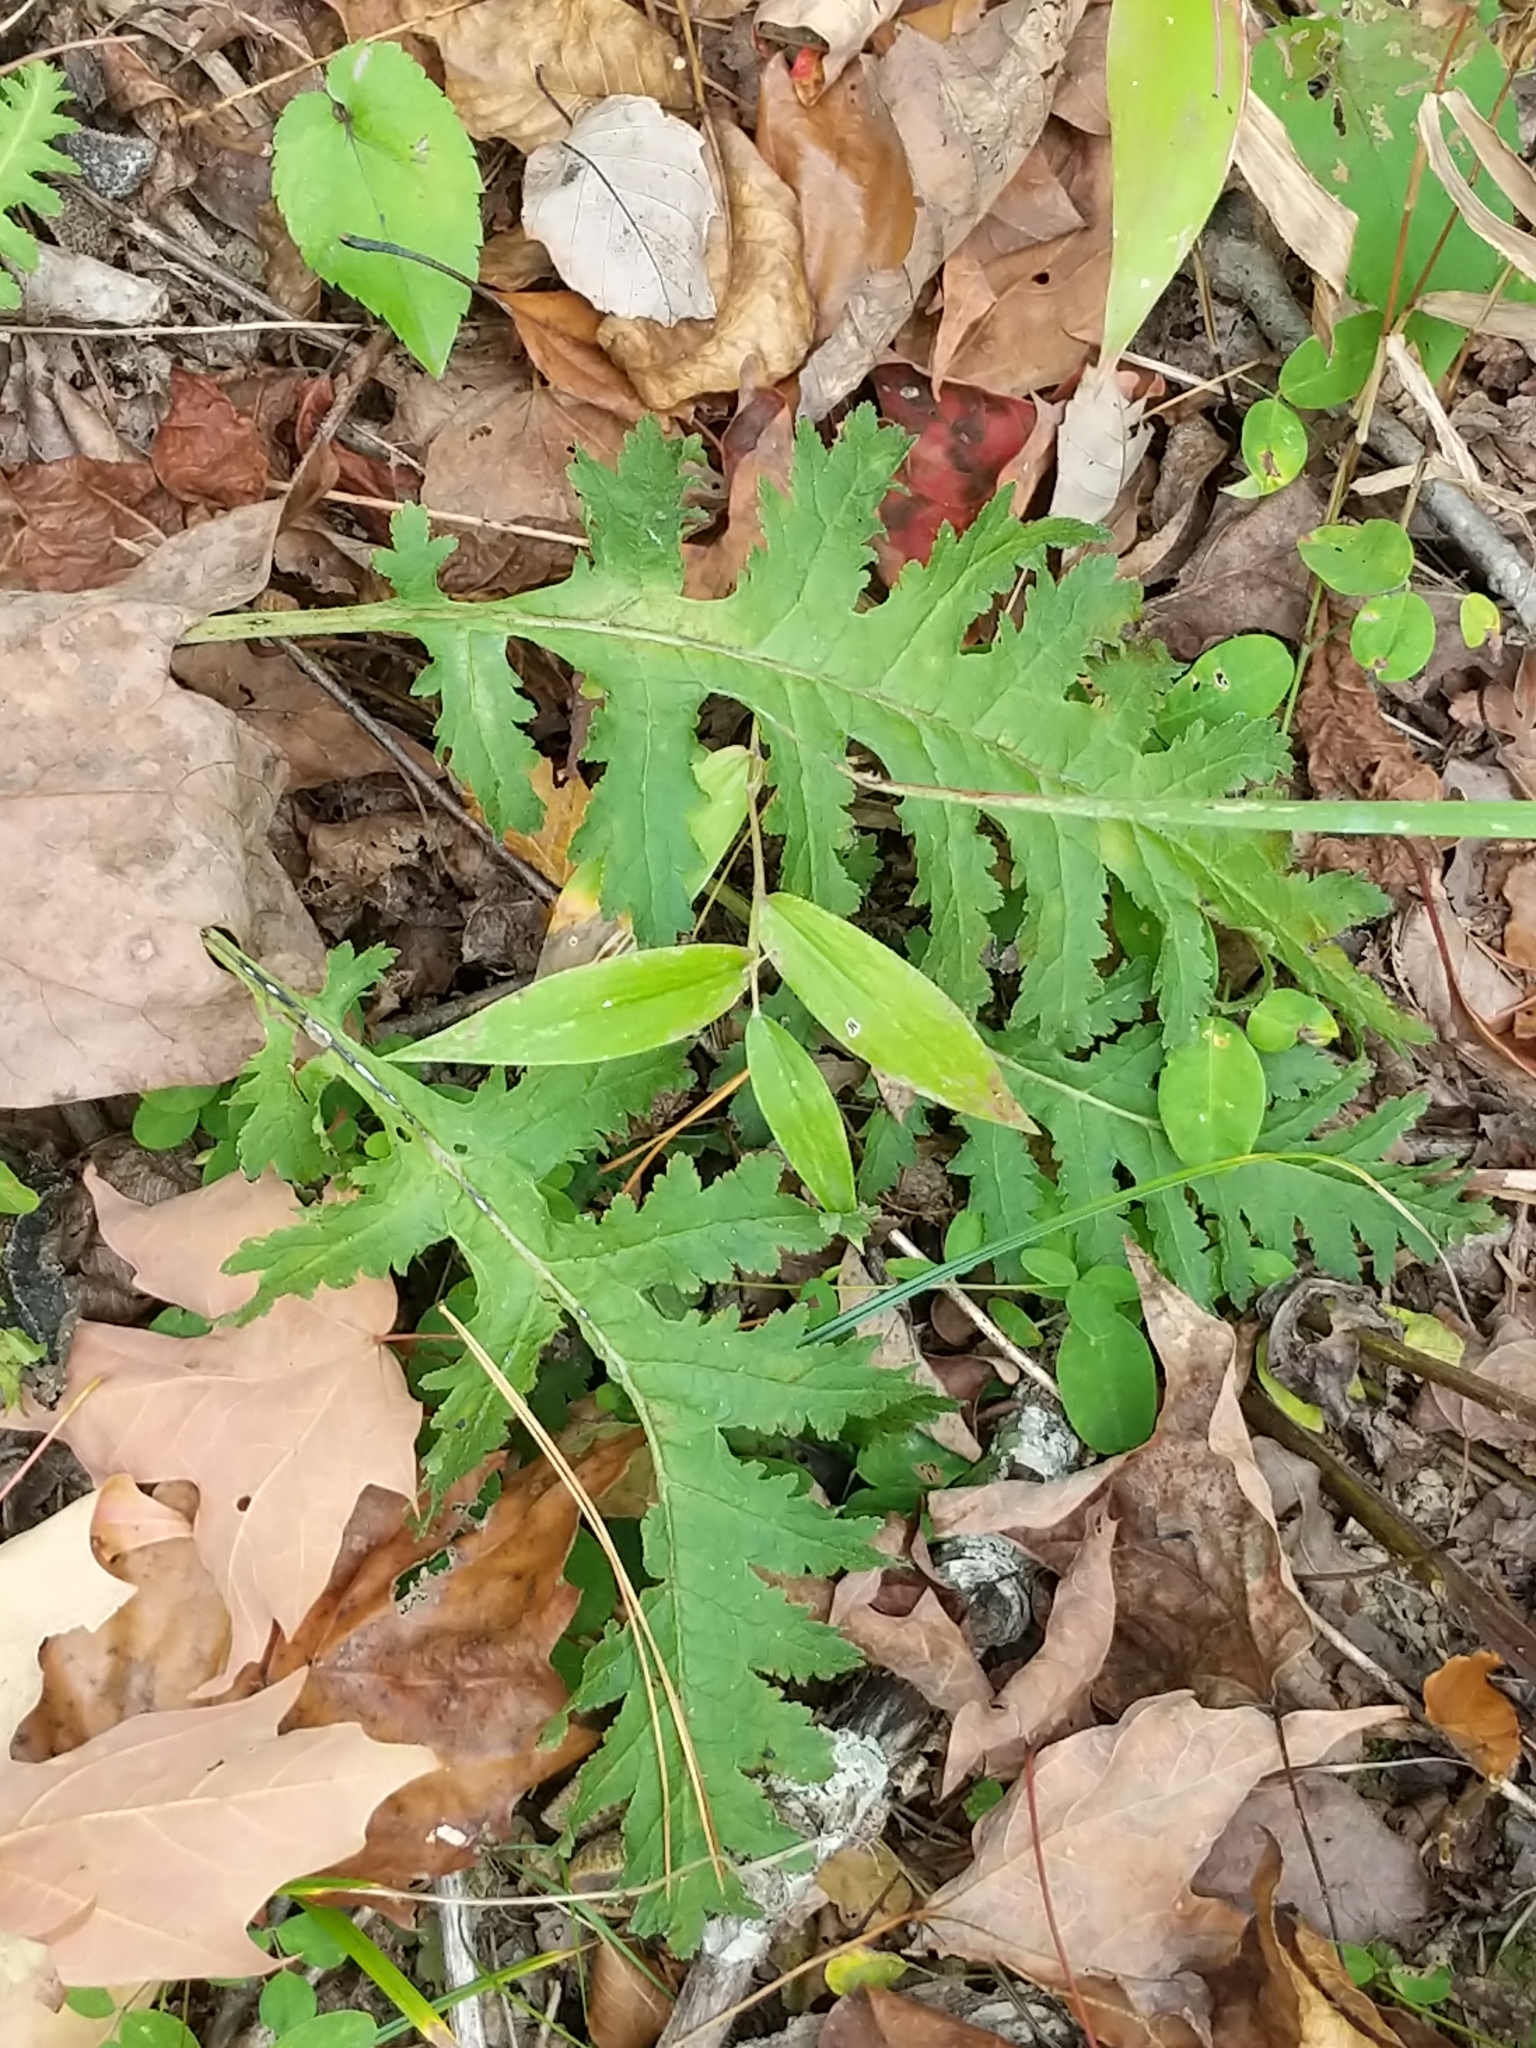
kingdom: Plantae
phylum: Tracheophyta
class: Magnoliopsida
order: Lamiales
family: Orobanchaceae
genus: Pedicularis
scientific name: Pedicularis canadensis
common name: Early lousewort
